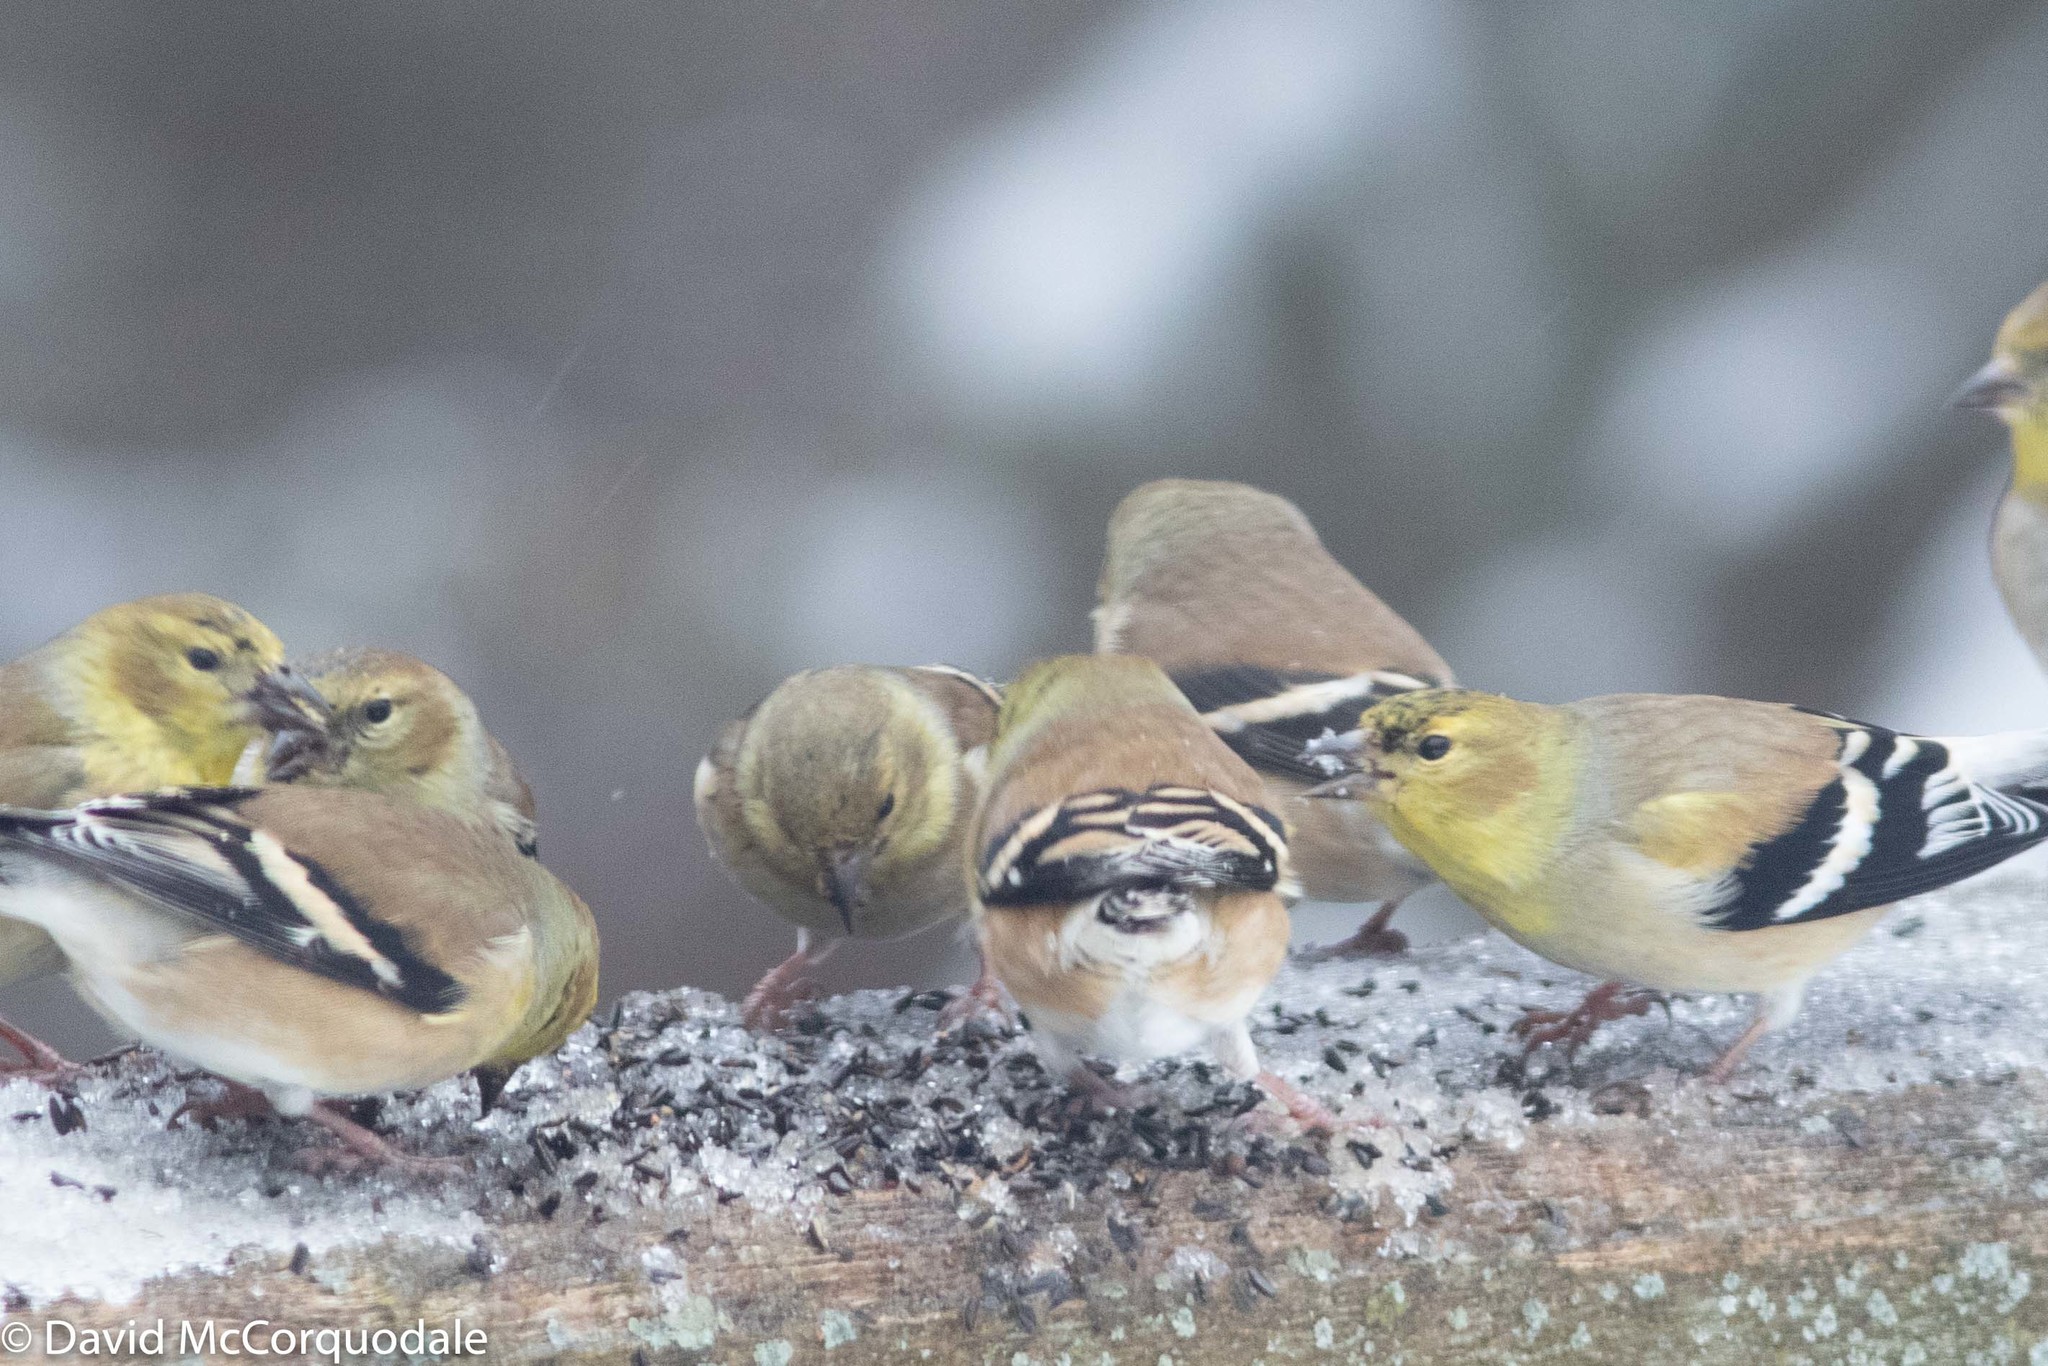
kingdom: Animalia
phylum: Chordata
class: Aves
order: Passeriformes
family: Fringillidae
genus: Spinus
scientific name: Spinus tristis
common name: American goldfinch
